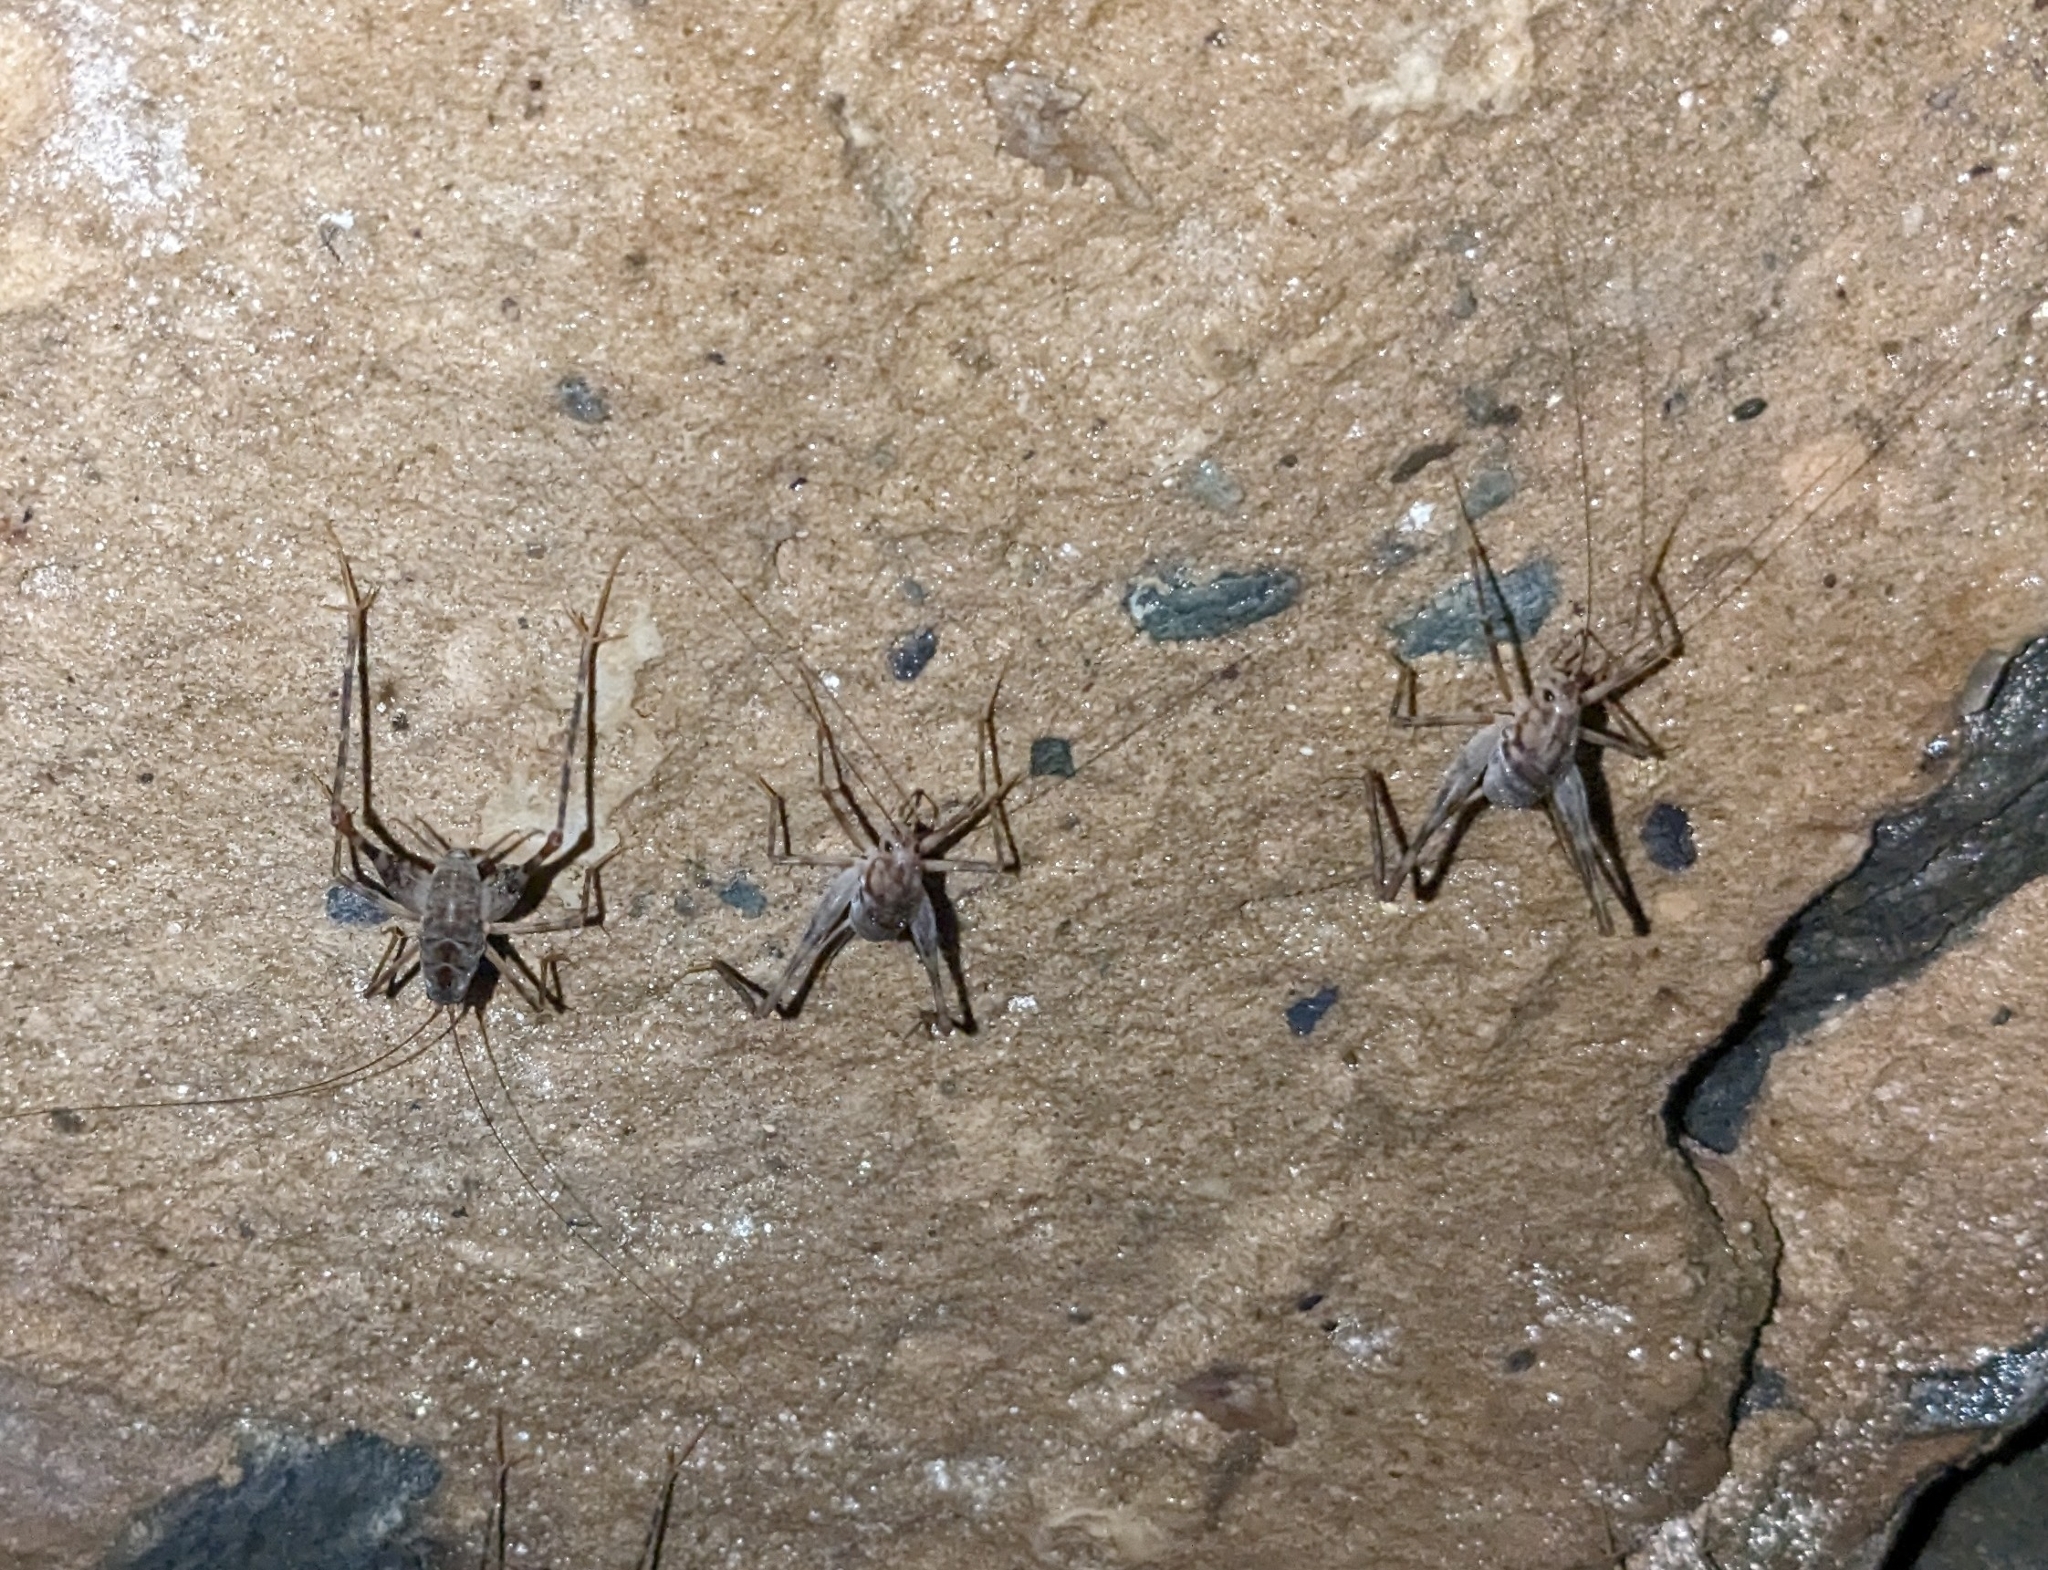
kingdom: Animalia
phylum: Arthropoda
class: Insecta
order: Orthoptera
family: Rhaphidophoridae
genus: Tachycines
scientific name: Tachycines asynamorus
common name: Greenhouse camel cricket
